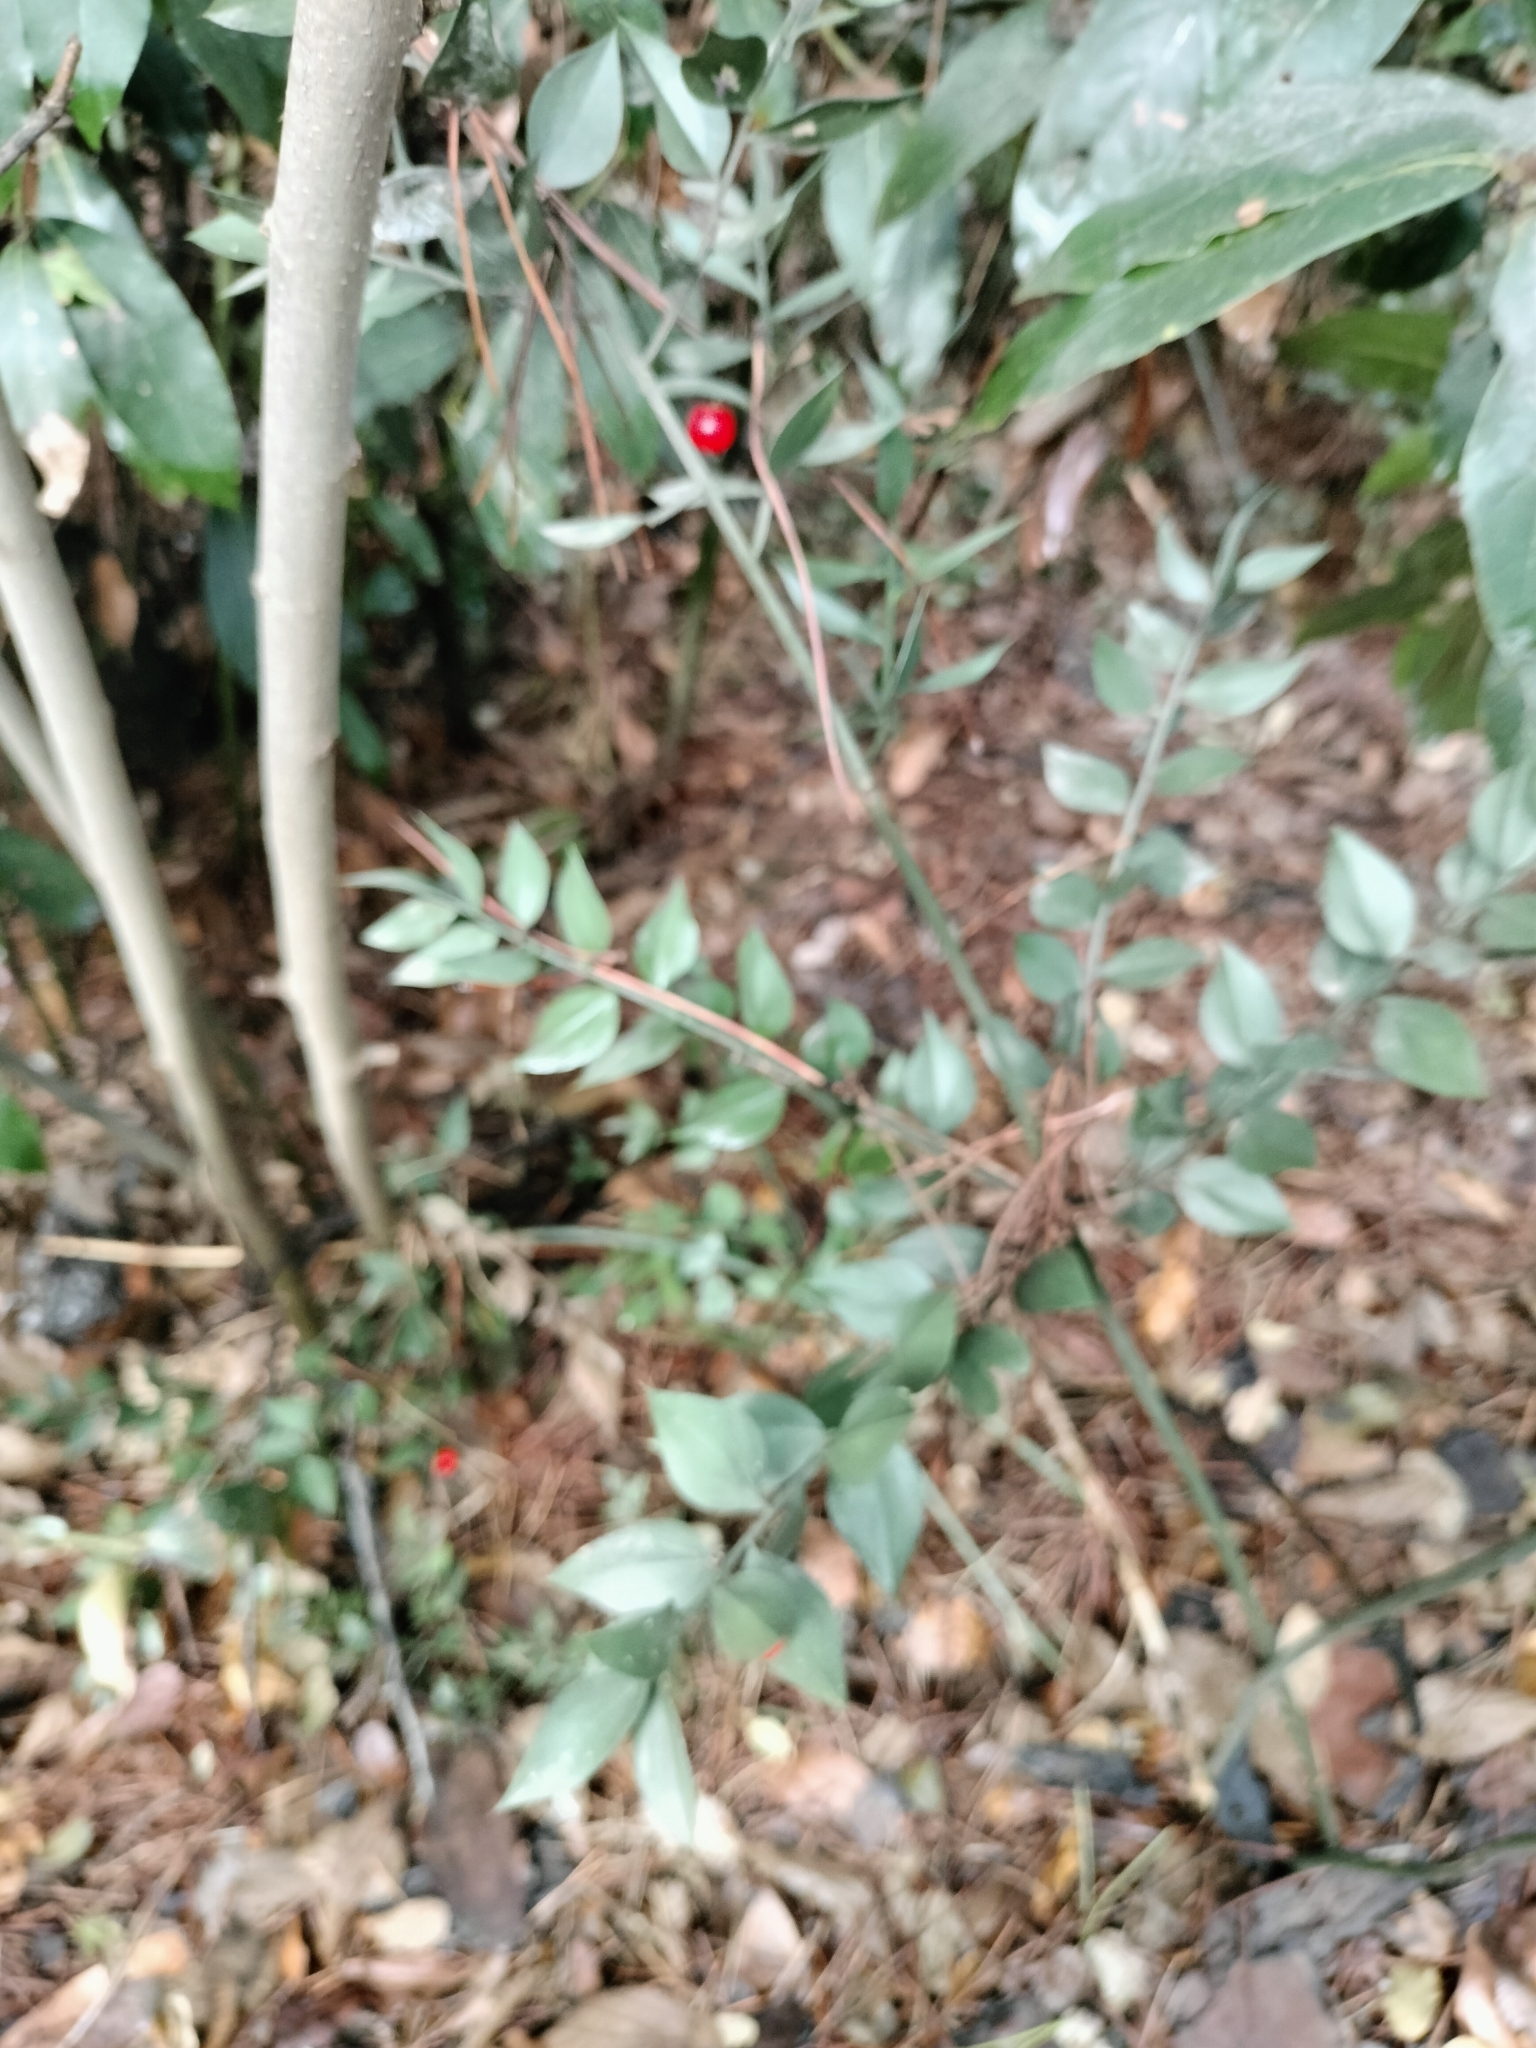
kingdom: Plantae
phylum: Tracheophyta
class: Liliopsida
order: Asparagales
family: Asparagaceae
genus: Ruscus
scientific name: Ruscus aculeatus
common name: Butcher's-broom
